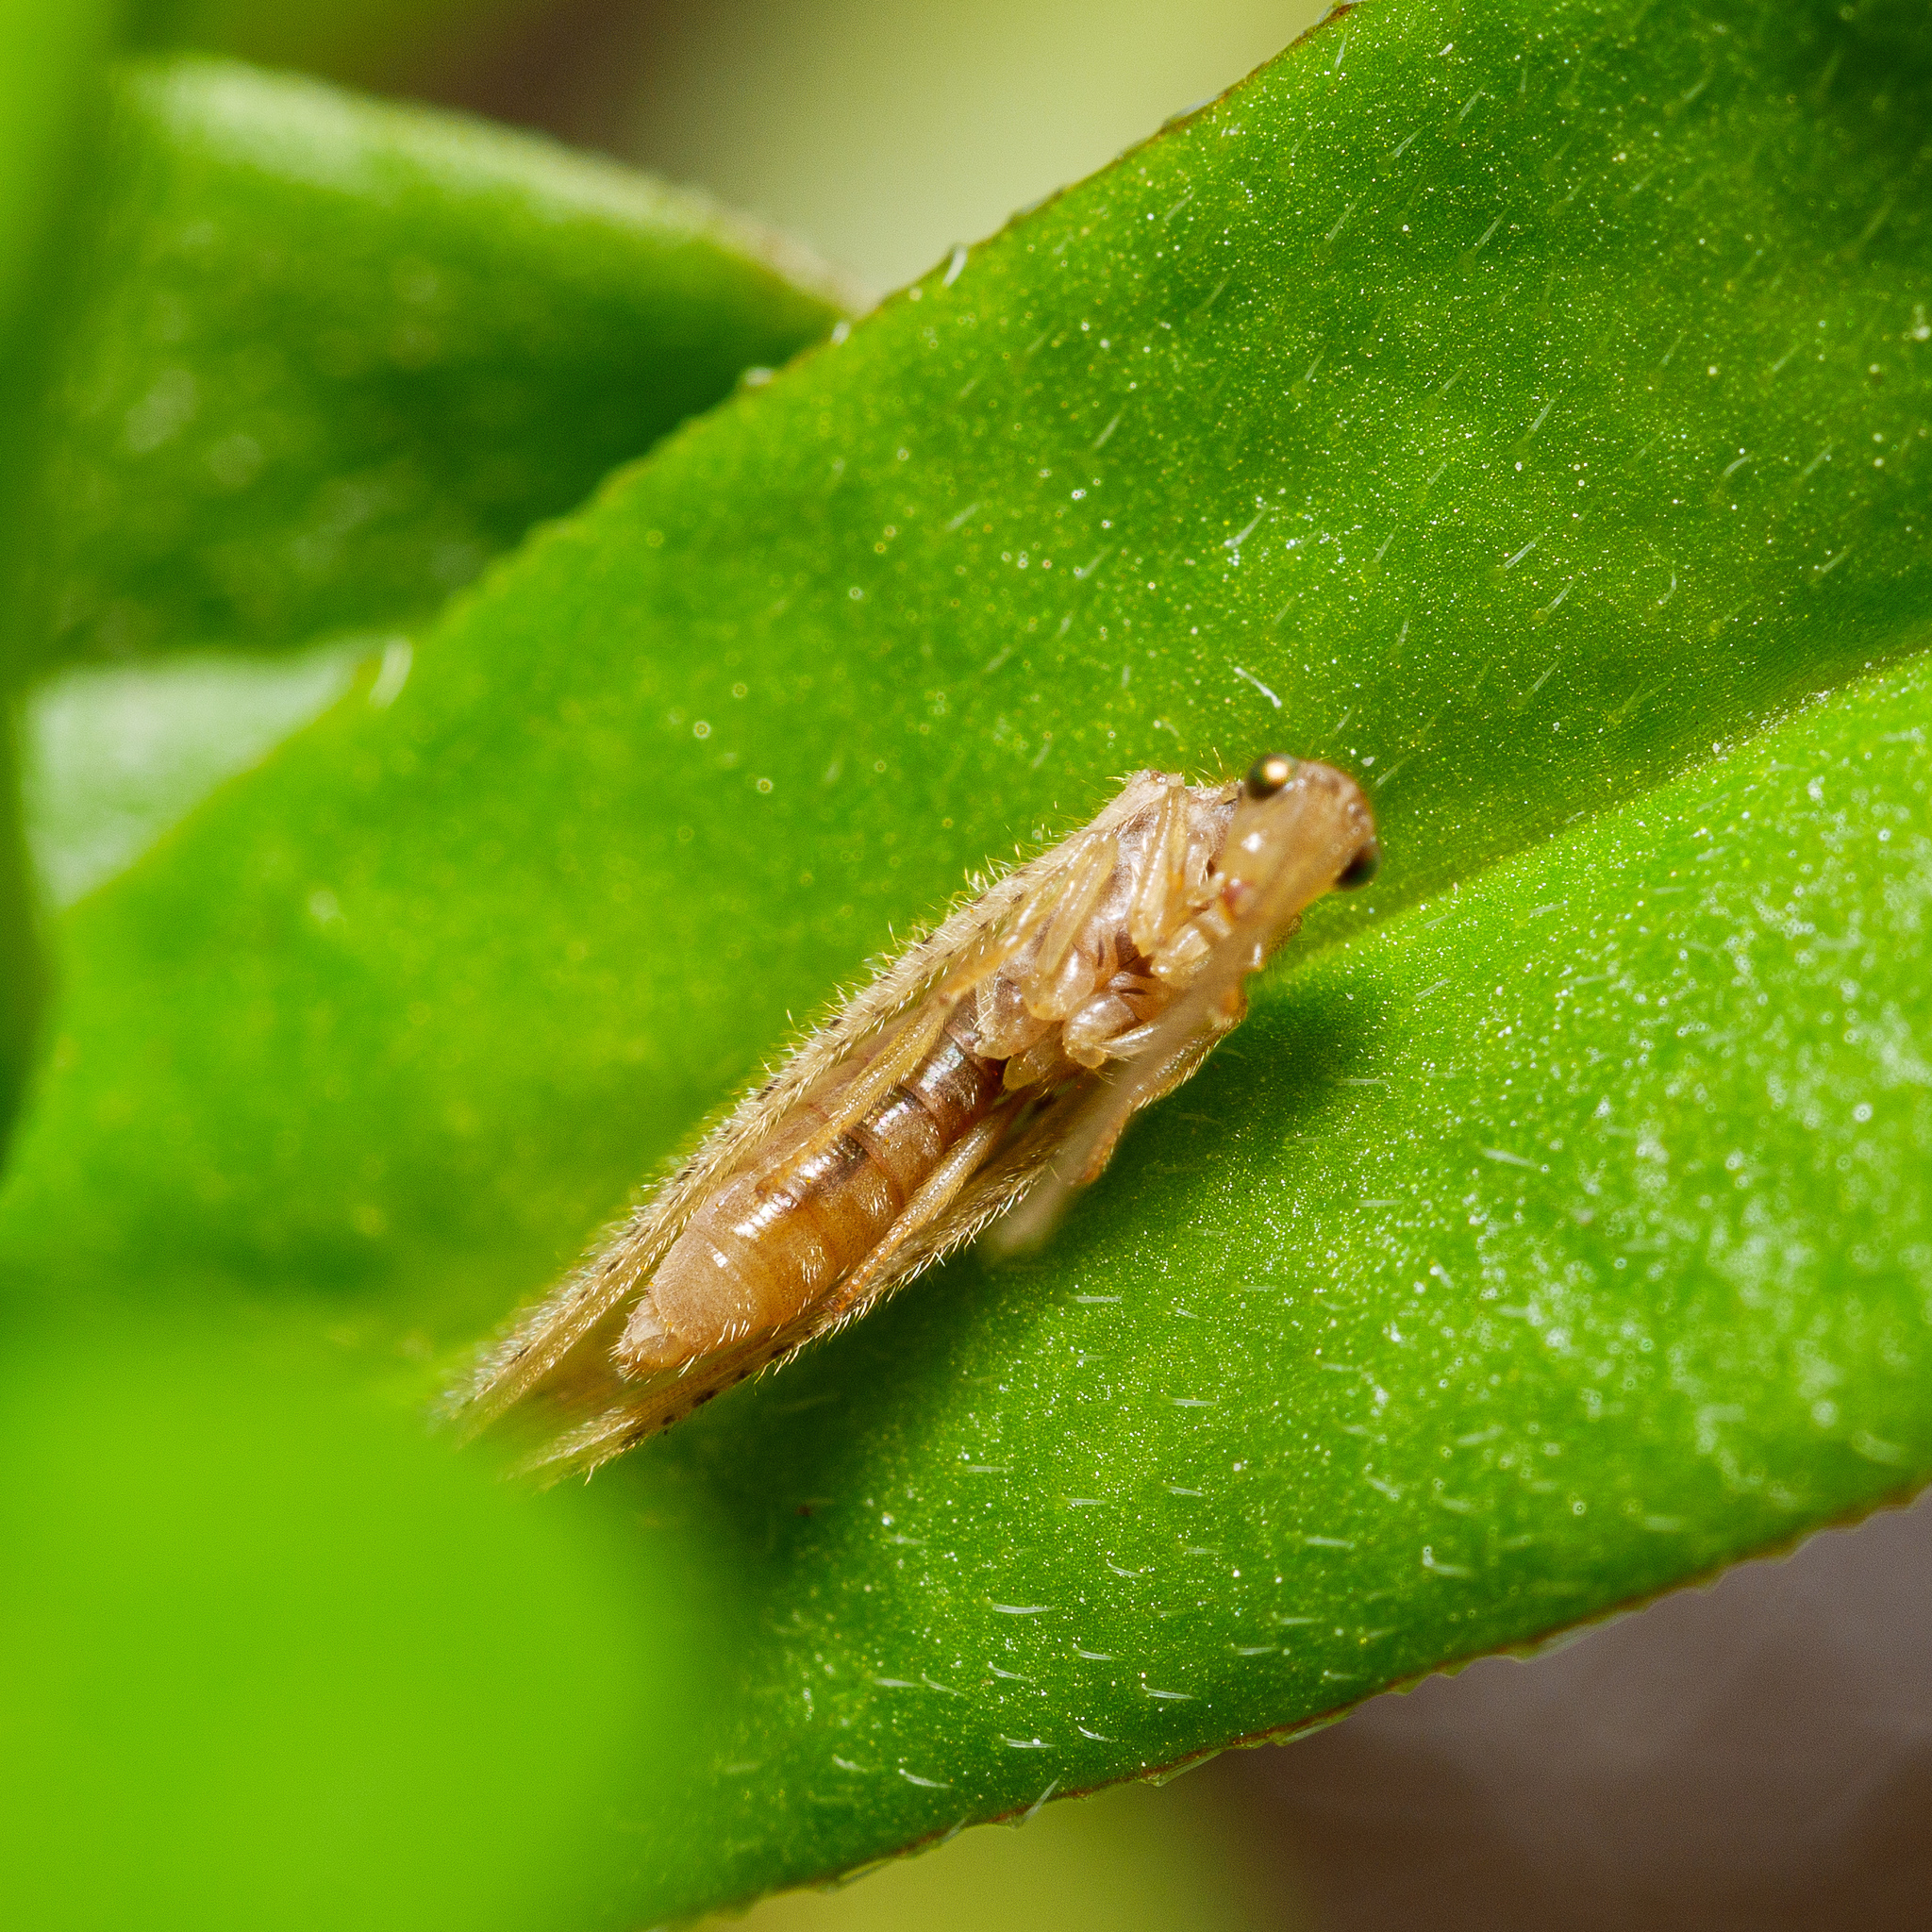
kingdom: Animalia
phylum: Arthropoda
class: Insecta
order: Neuroptera
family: Hemerobiidae
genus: Micromus
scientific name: Micromus tasmaniae
